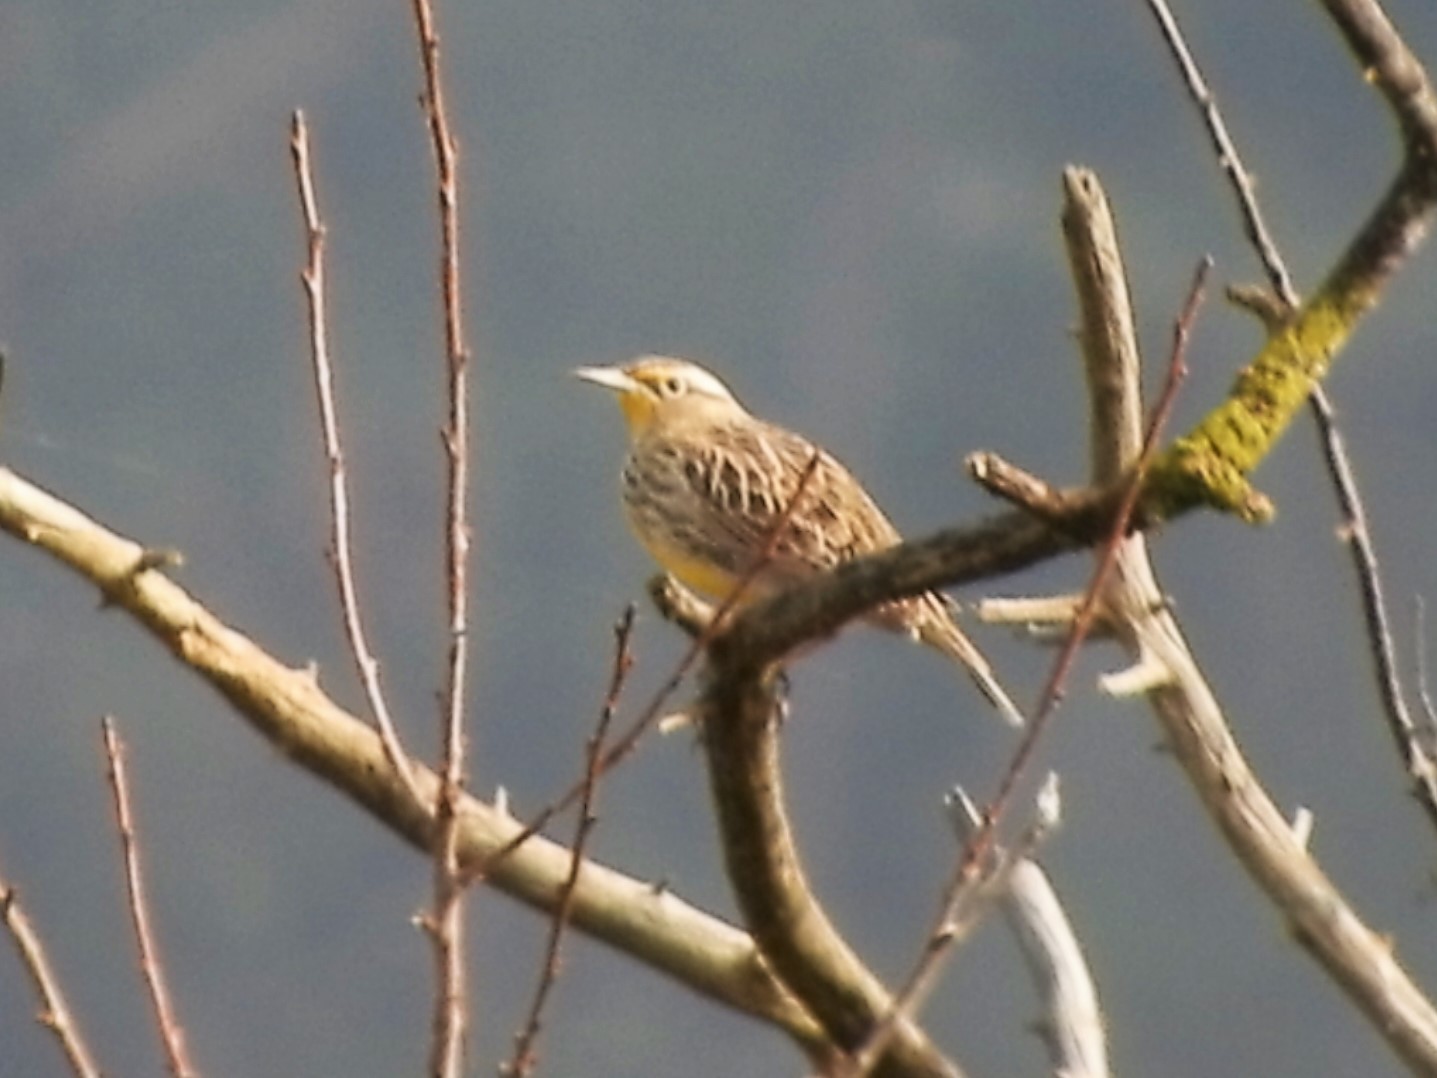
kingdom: Animalia
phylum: Chordata
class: Aves
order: Passeriformes
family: Icteridae
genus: Sturnella
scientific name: Sturnella neglecta
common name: Western meadowlark
